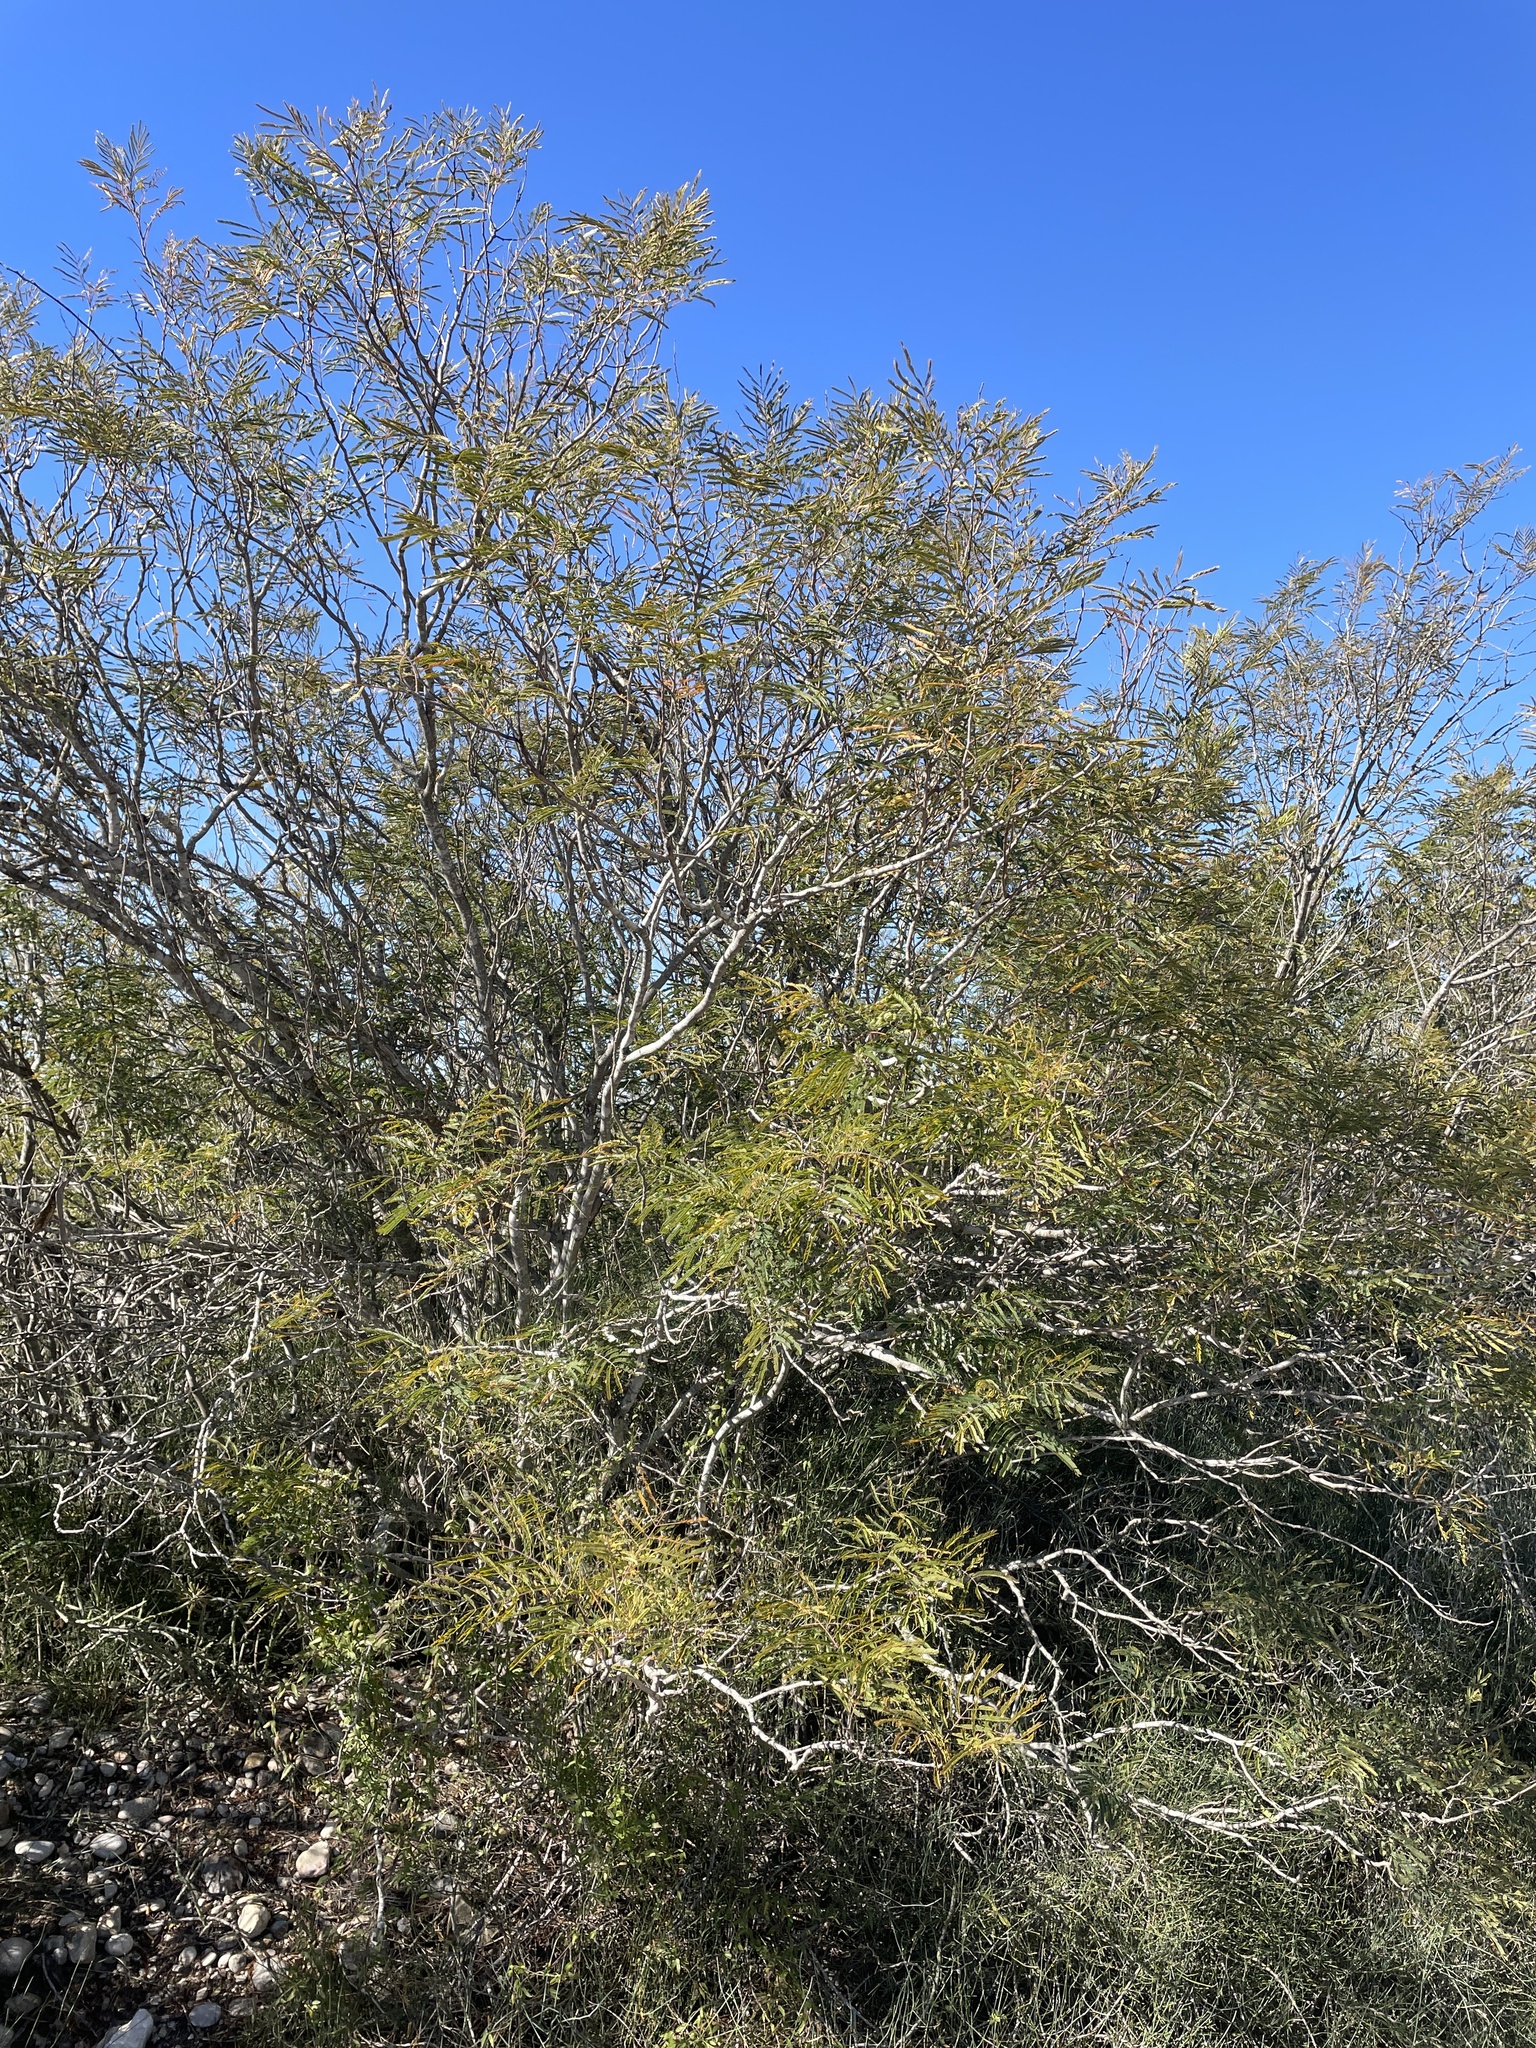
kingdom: Plantae
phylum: Tracheophyta
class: Magnoliopsida
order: Fabales
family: Fabaceae
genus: Senegalia
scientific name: Senegalia berlandieri
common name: Berlandier acacia
